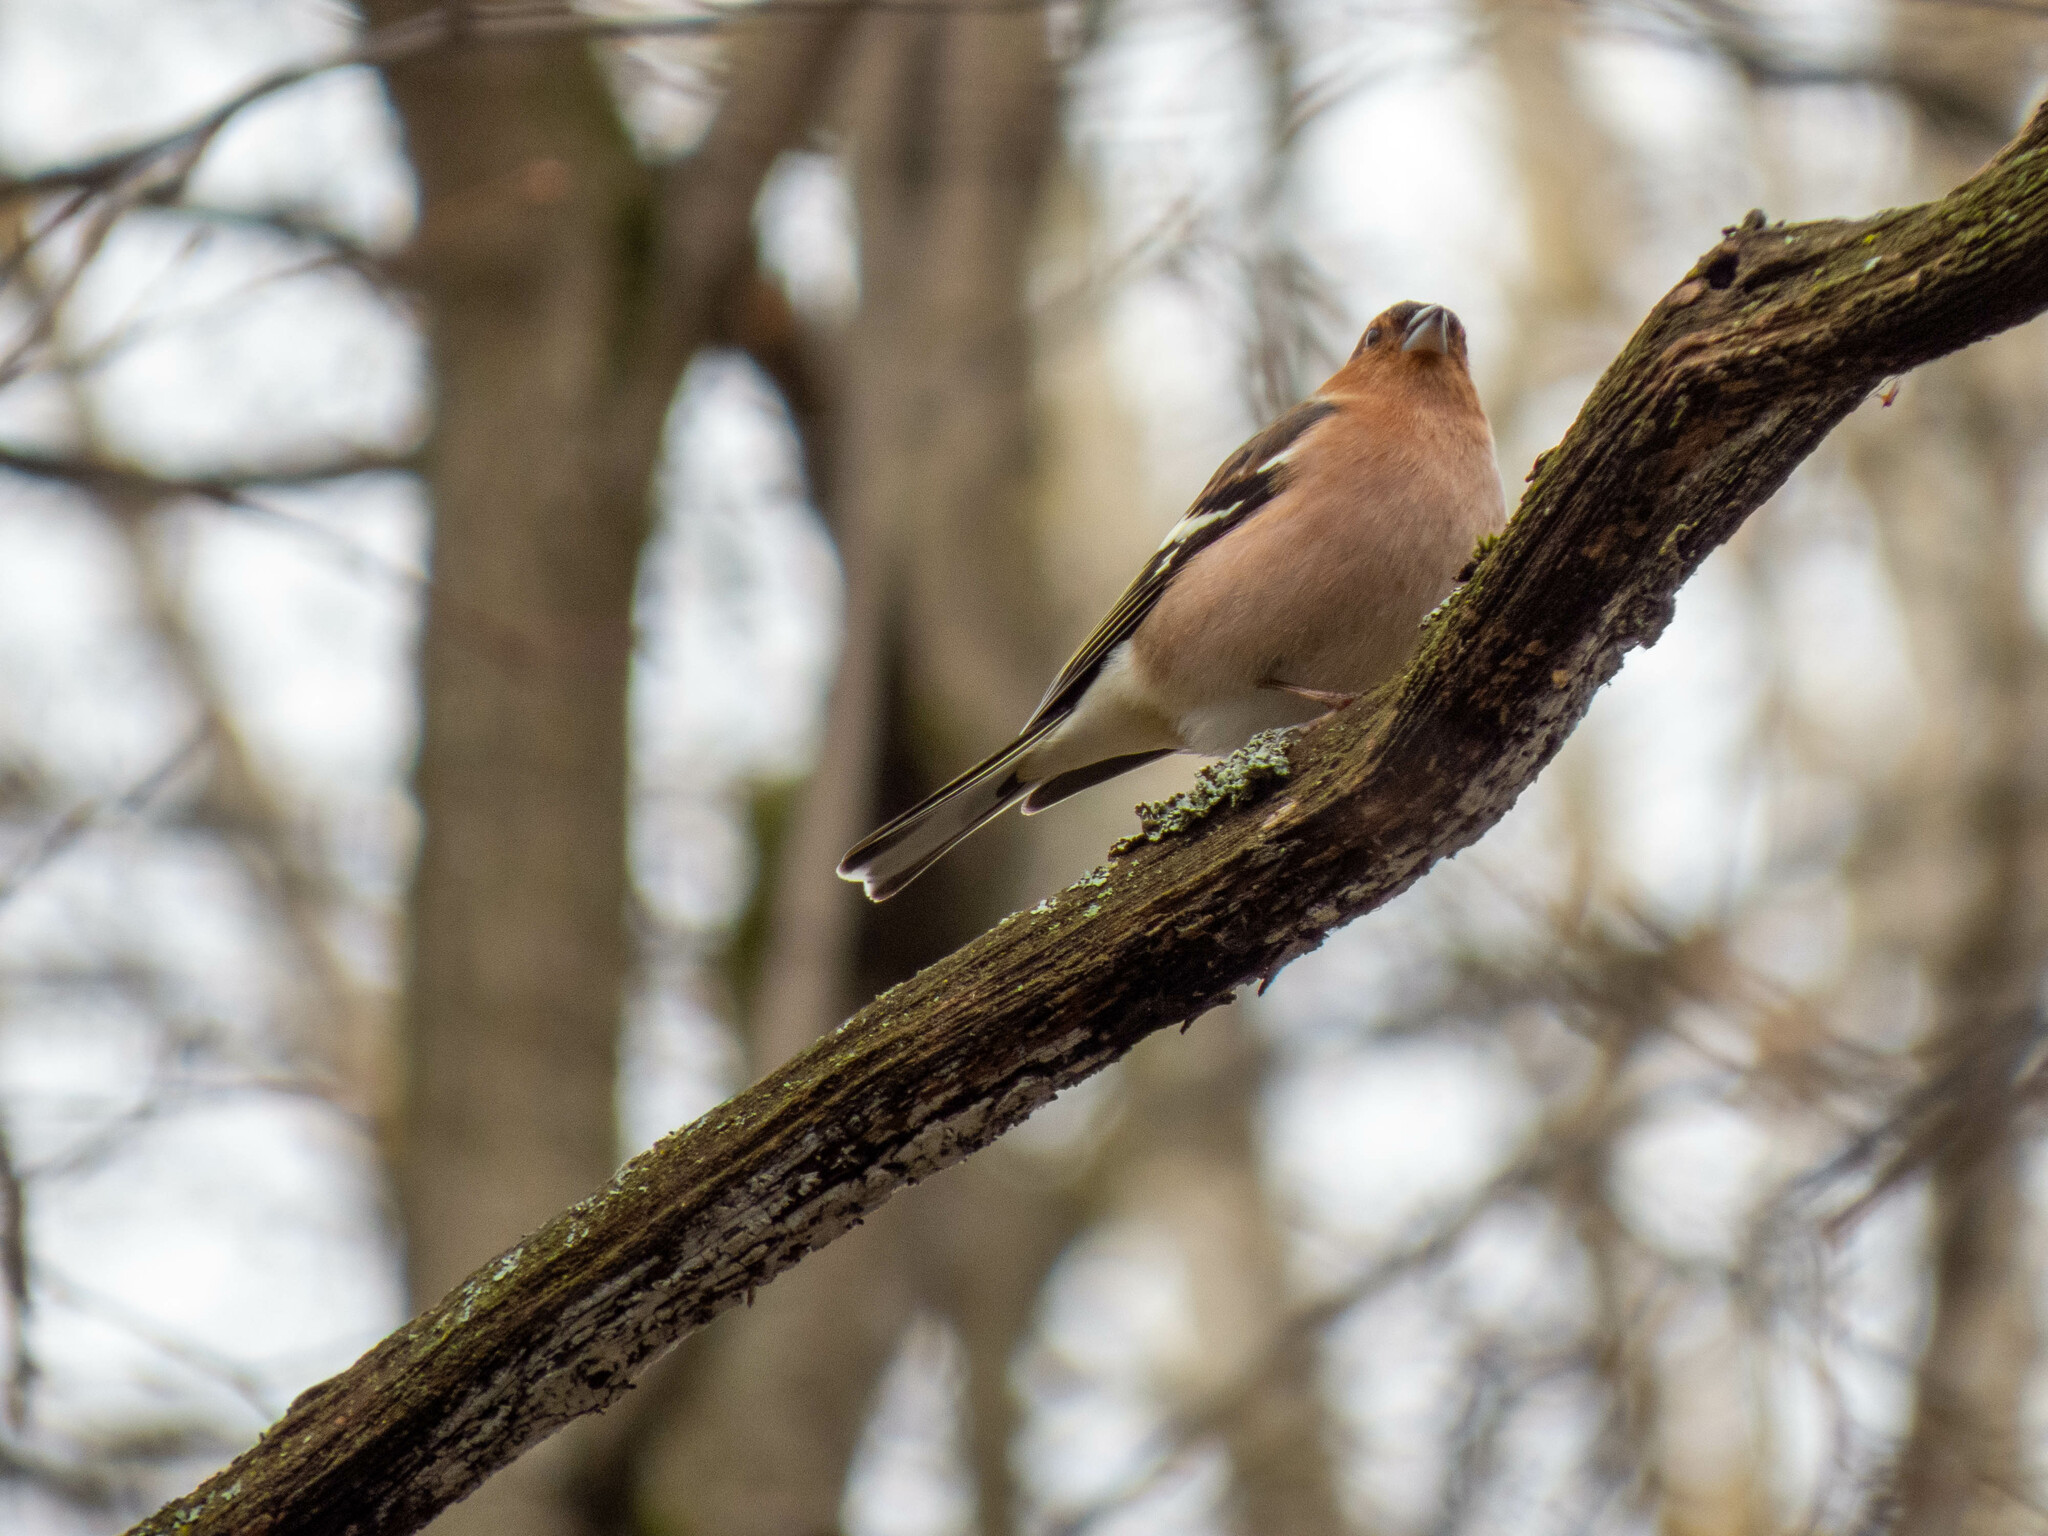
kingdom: Animalia
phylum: Chordata
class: Aves
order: Passeriformes
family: Fringillidae
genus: Fringilla
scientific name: Fringilla coelebs
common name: Common chaffinch
